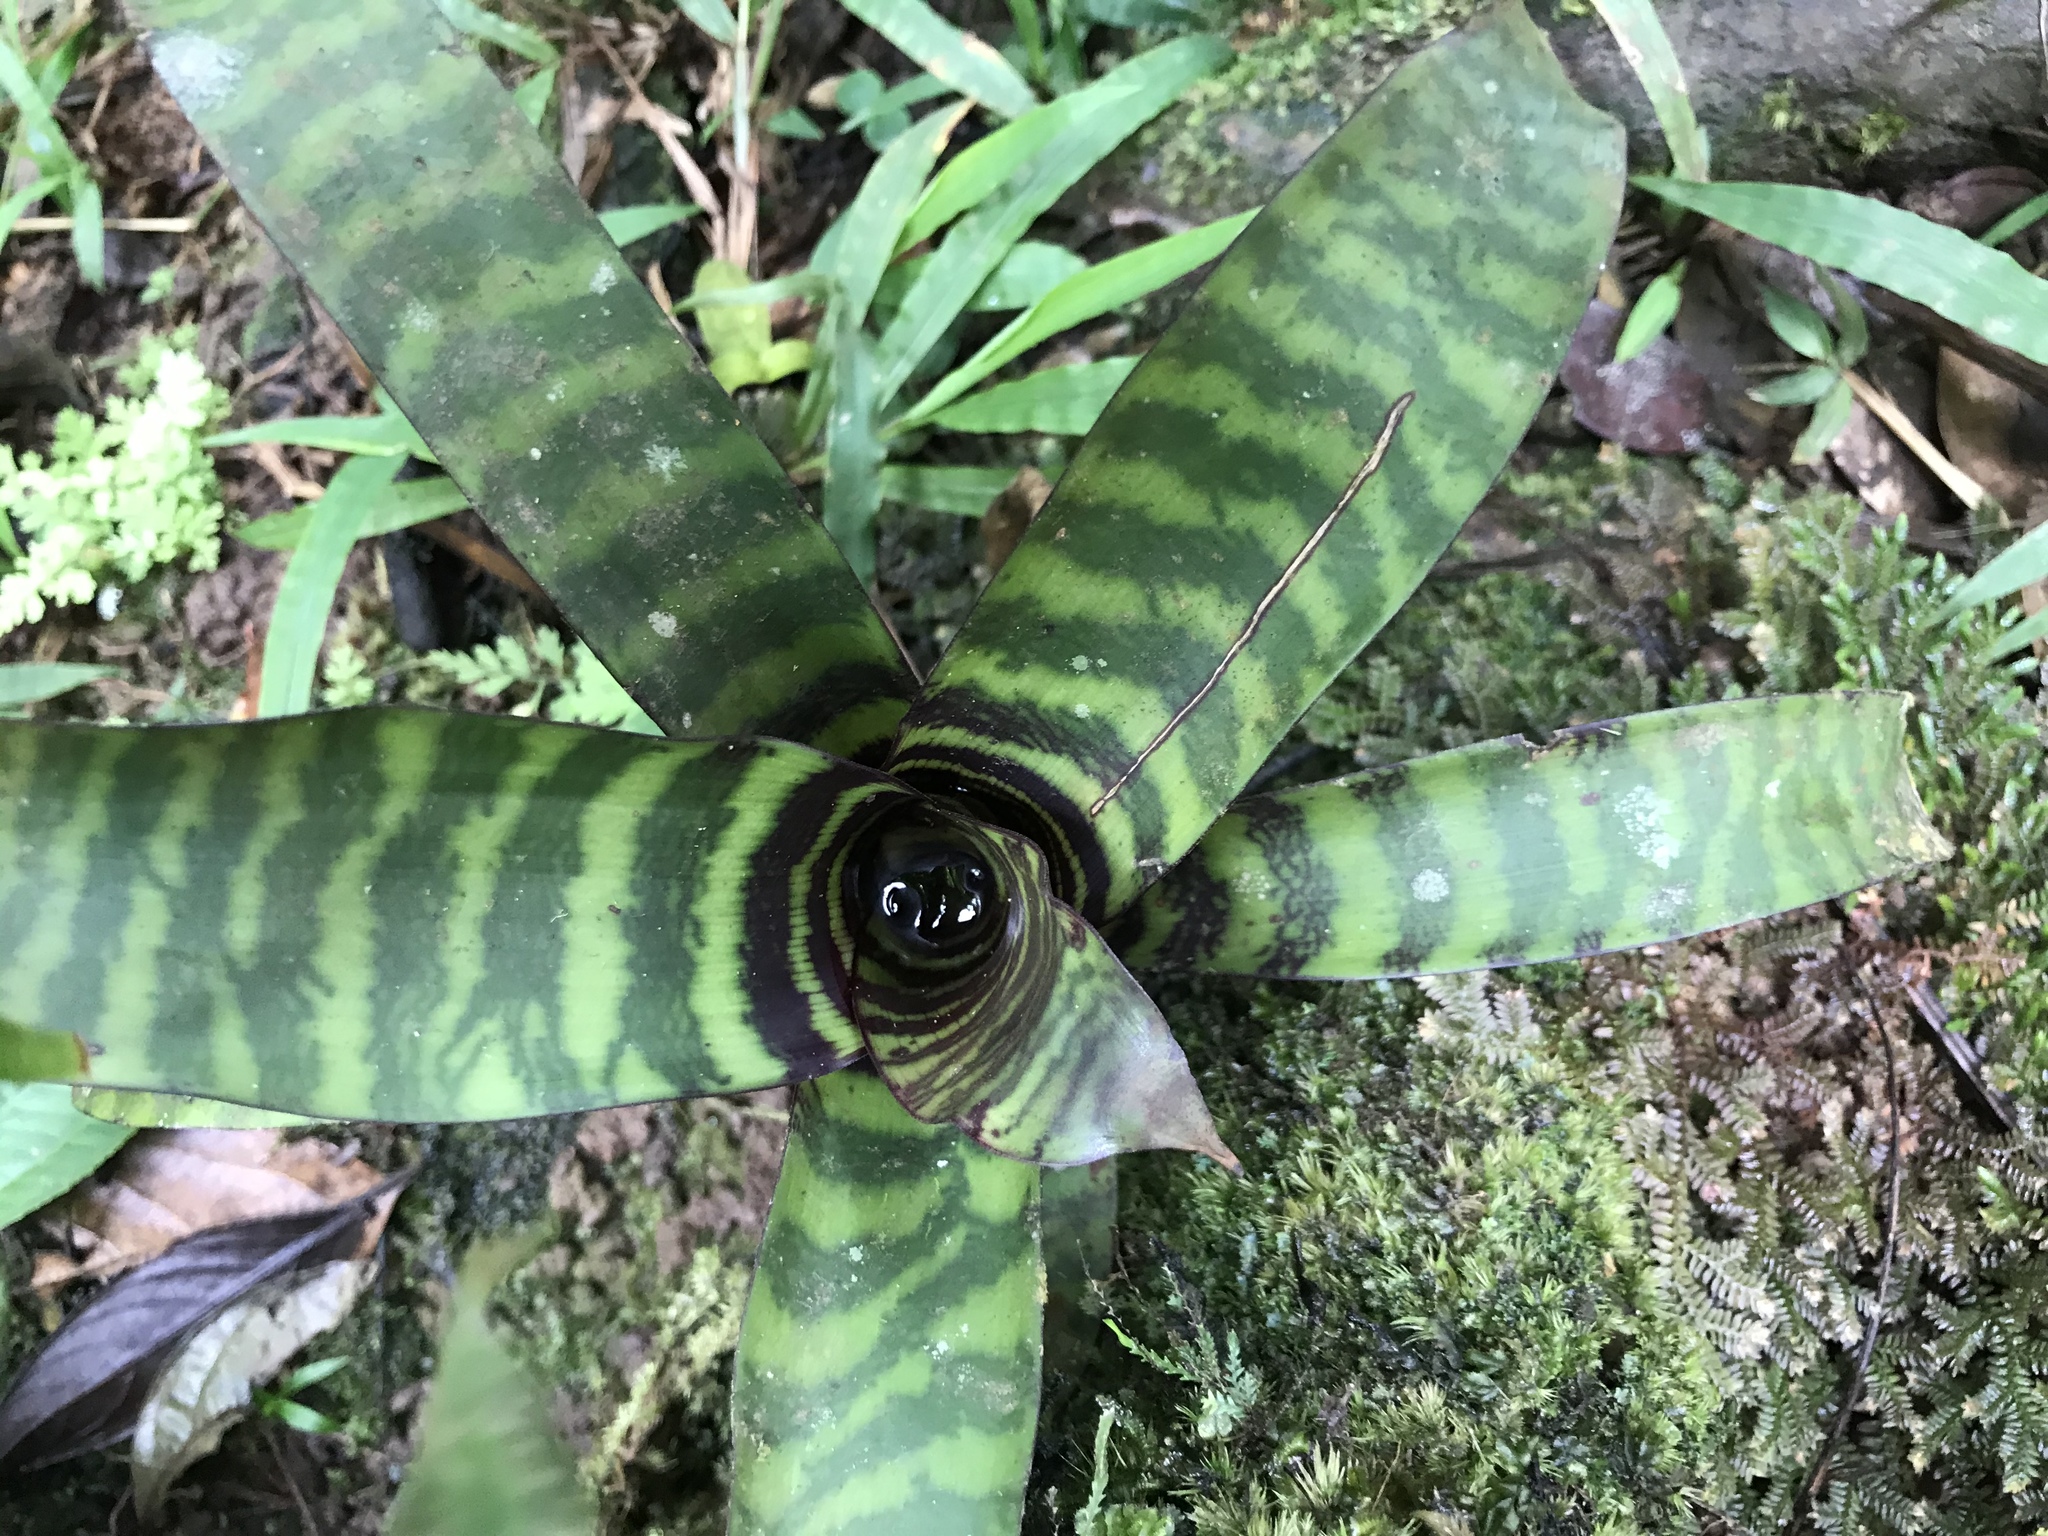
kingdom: Plantae
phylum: Tracheophyta
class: Liliopsida
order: Poales
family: Bromeliaceae
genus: Guzmania
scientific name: Guzmania musaica
